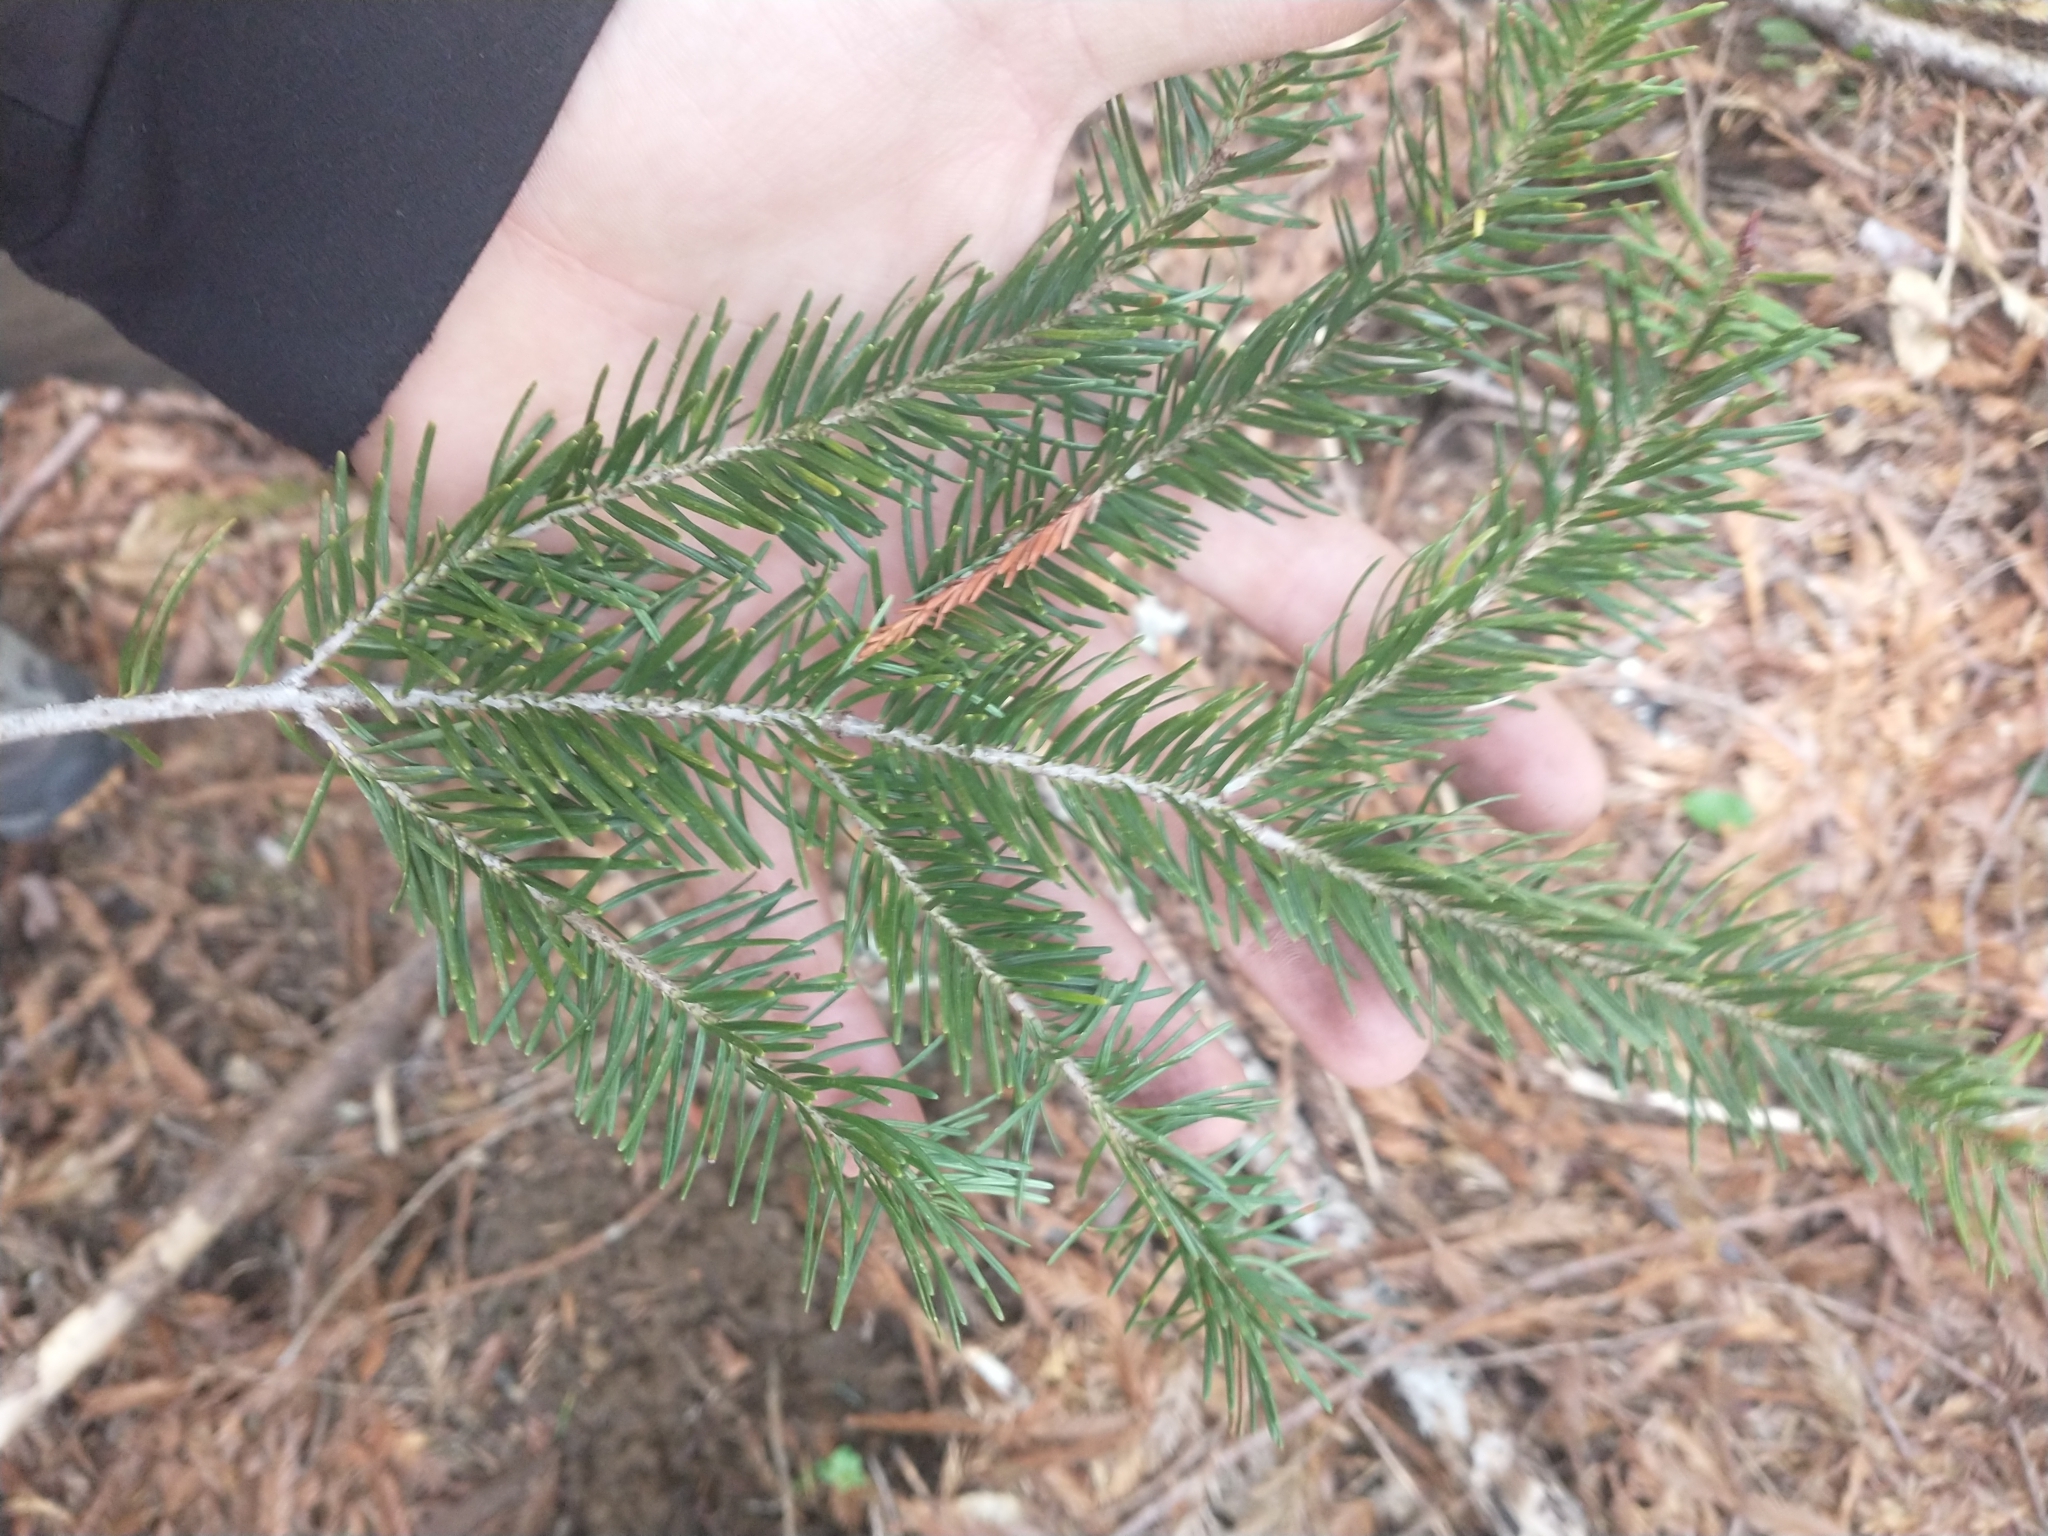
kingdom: Plantae
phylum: Tracheophyta
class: Pinopsida
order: Pinales
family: Pinaceae
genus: Pseudotsuga
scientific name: Pseudotsuga menziesii
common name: Douglas fir
